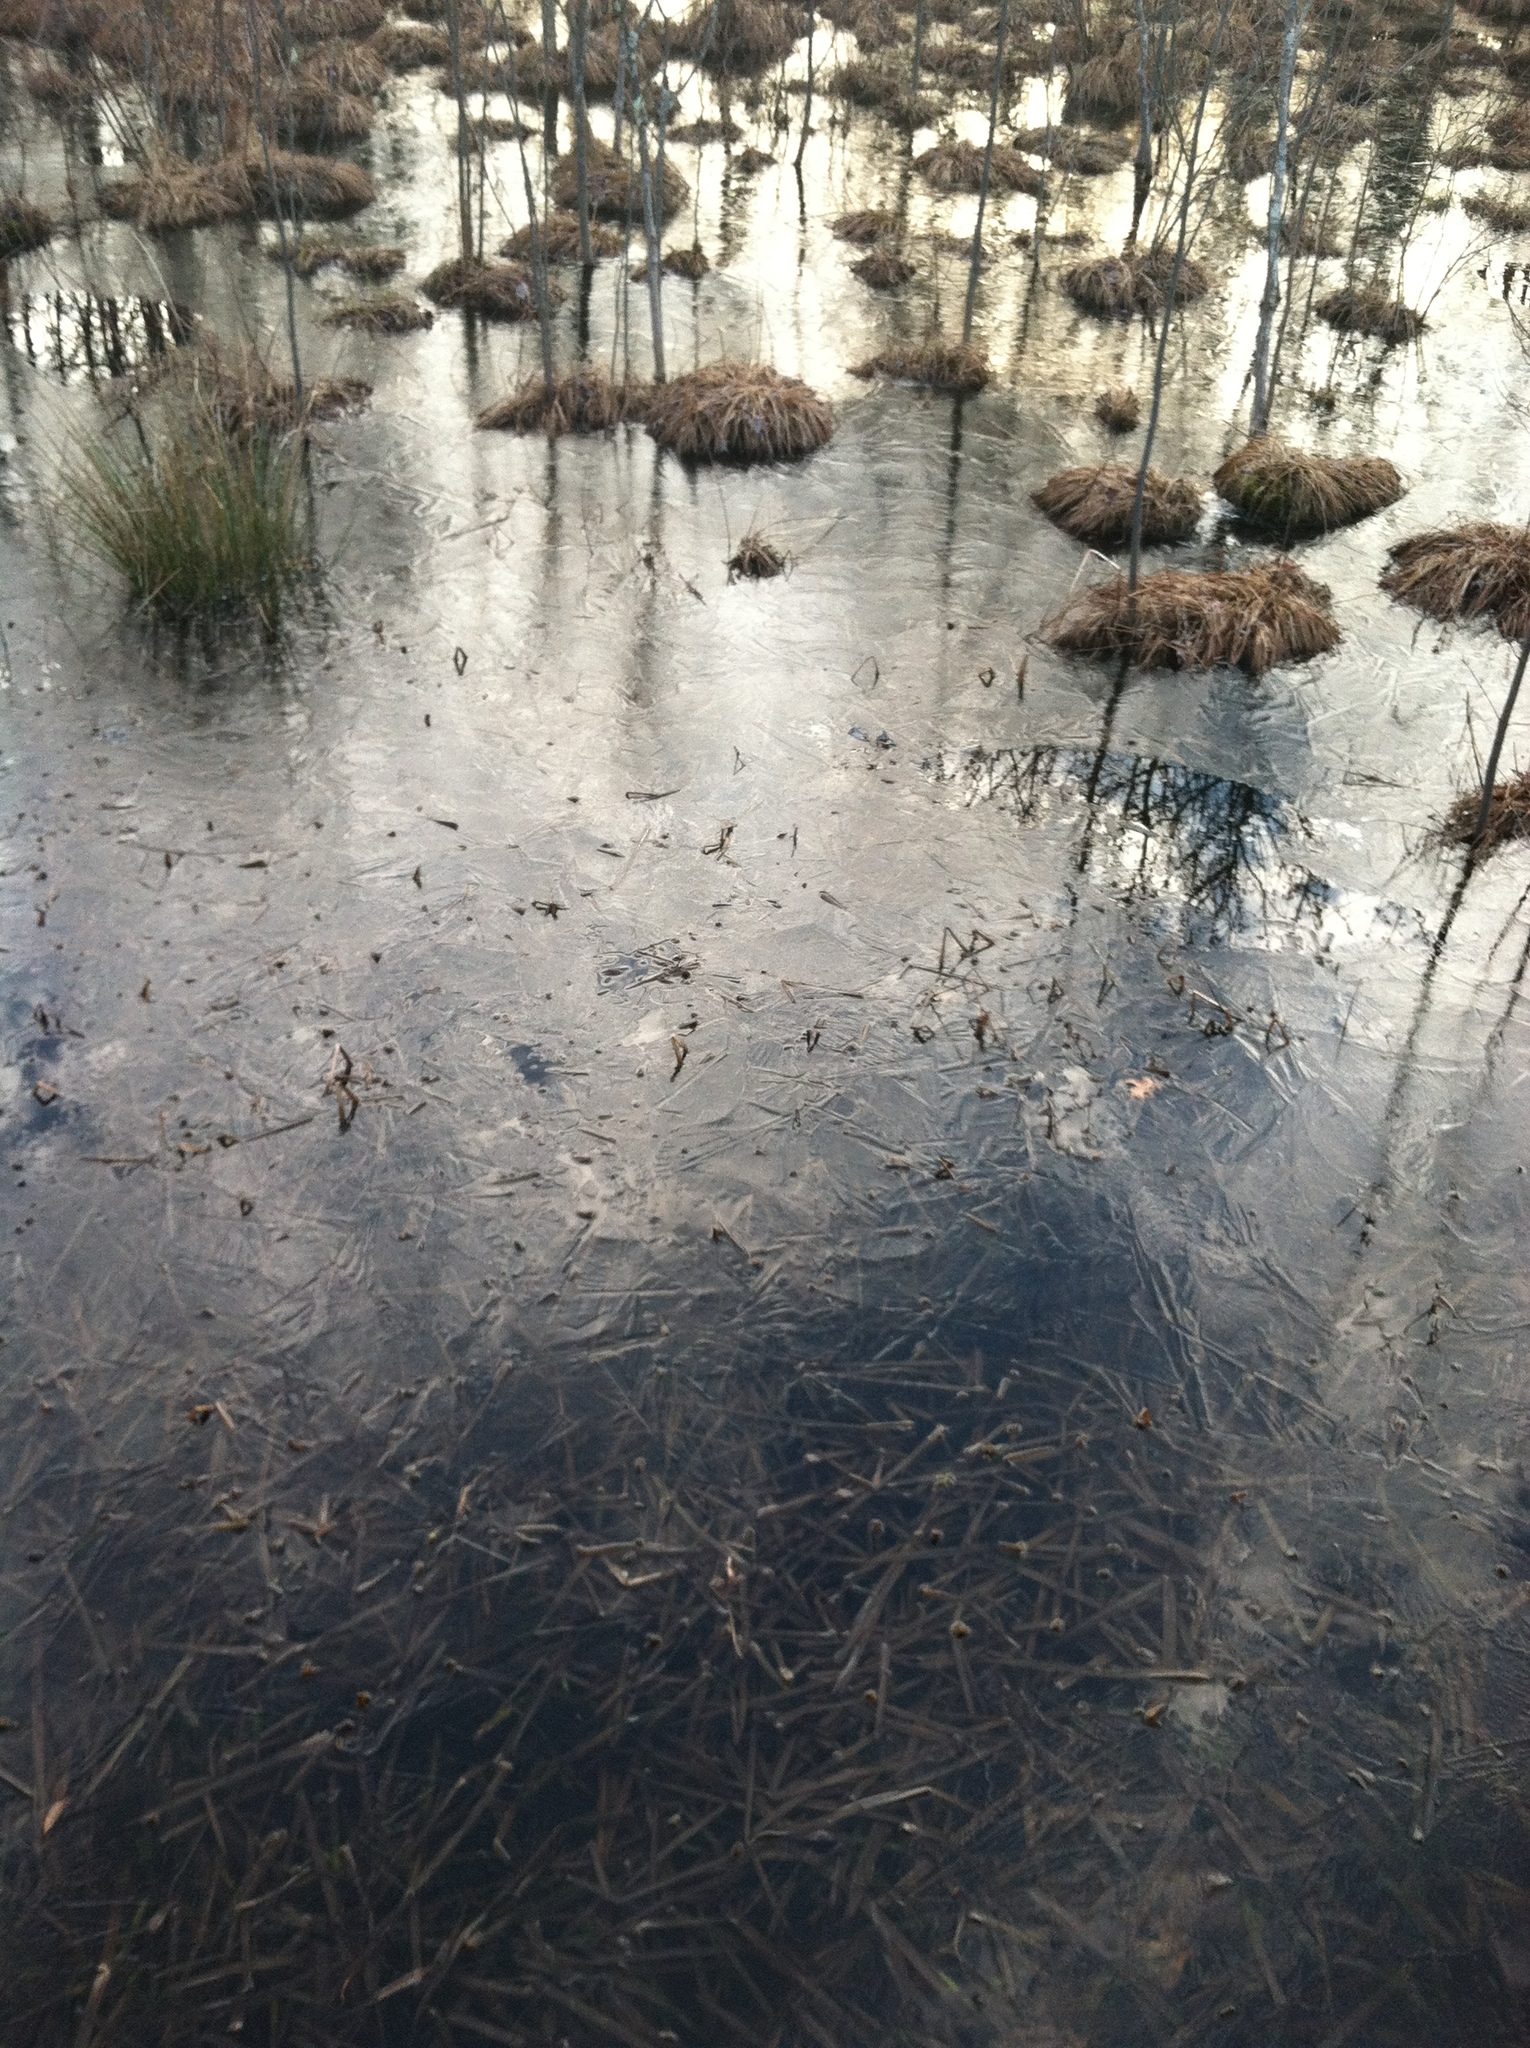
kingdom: Plantae
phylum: Tracheophyta
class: Liliopsida
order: Poales
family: Cyperaceae
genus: Carex
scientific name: Carex stricta
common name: Hummock sedge
